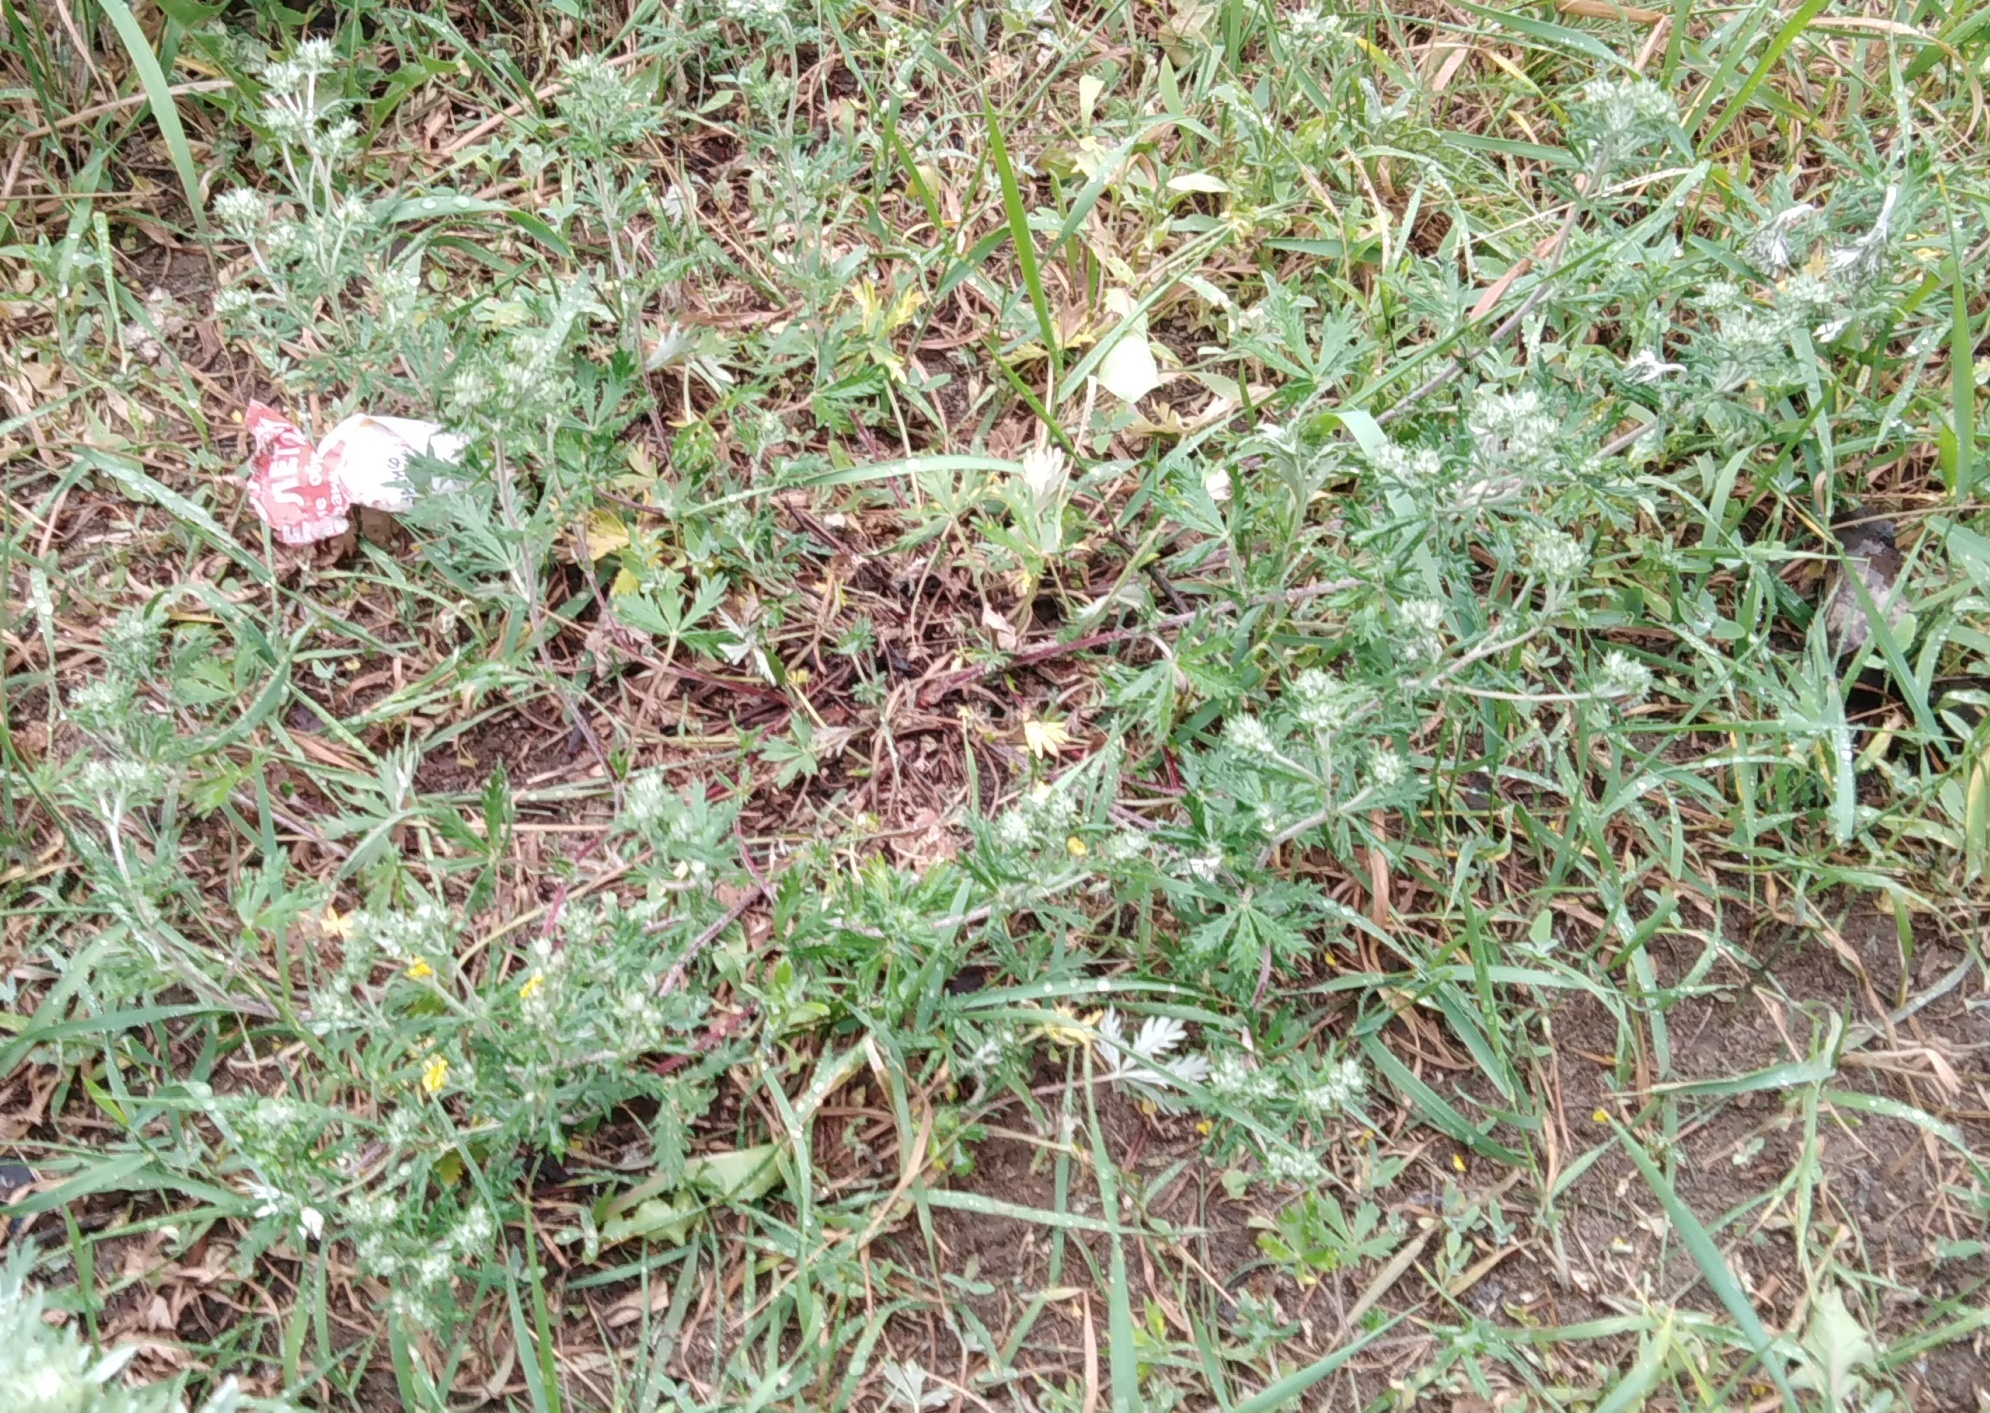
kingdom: Plantae
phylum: Tracheophyta
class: Magnoliopsida
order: Rosales
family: Rosaceae
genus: Potentilla
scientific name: Potentilla argentea
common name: Hoary cinquefoil
